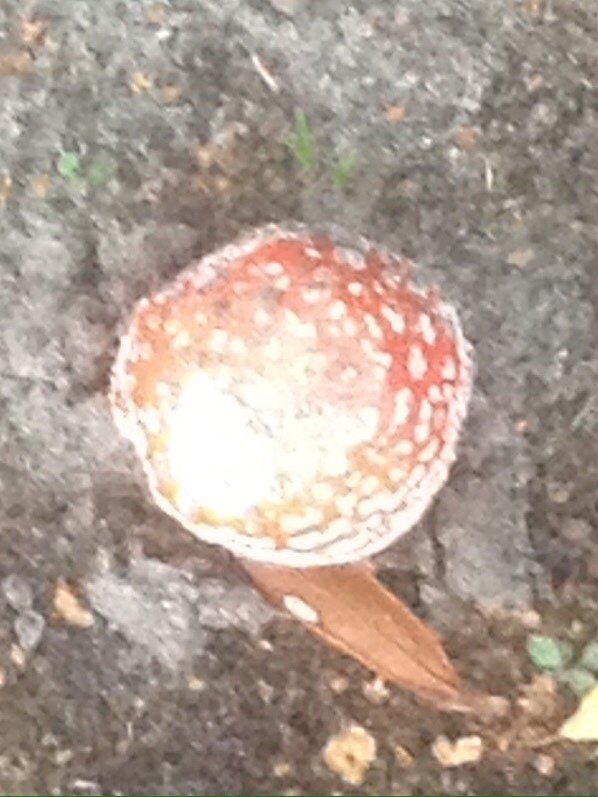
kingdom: Fungi
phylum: Basidiomycota
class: Agaricomycetes
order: Agaricales
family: Amanitaceae
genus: Amanita
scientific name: Amanita muscaria
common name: Fly agaric
